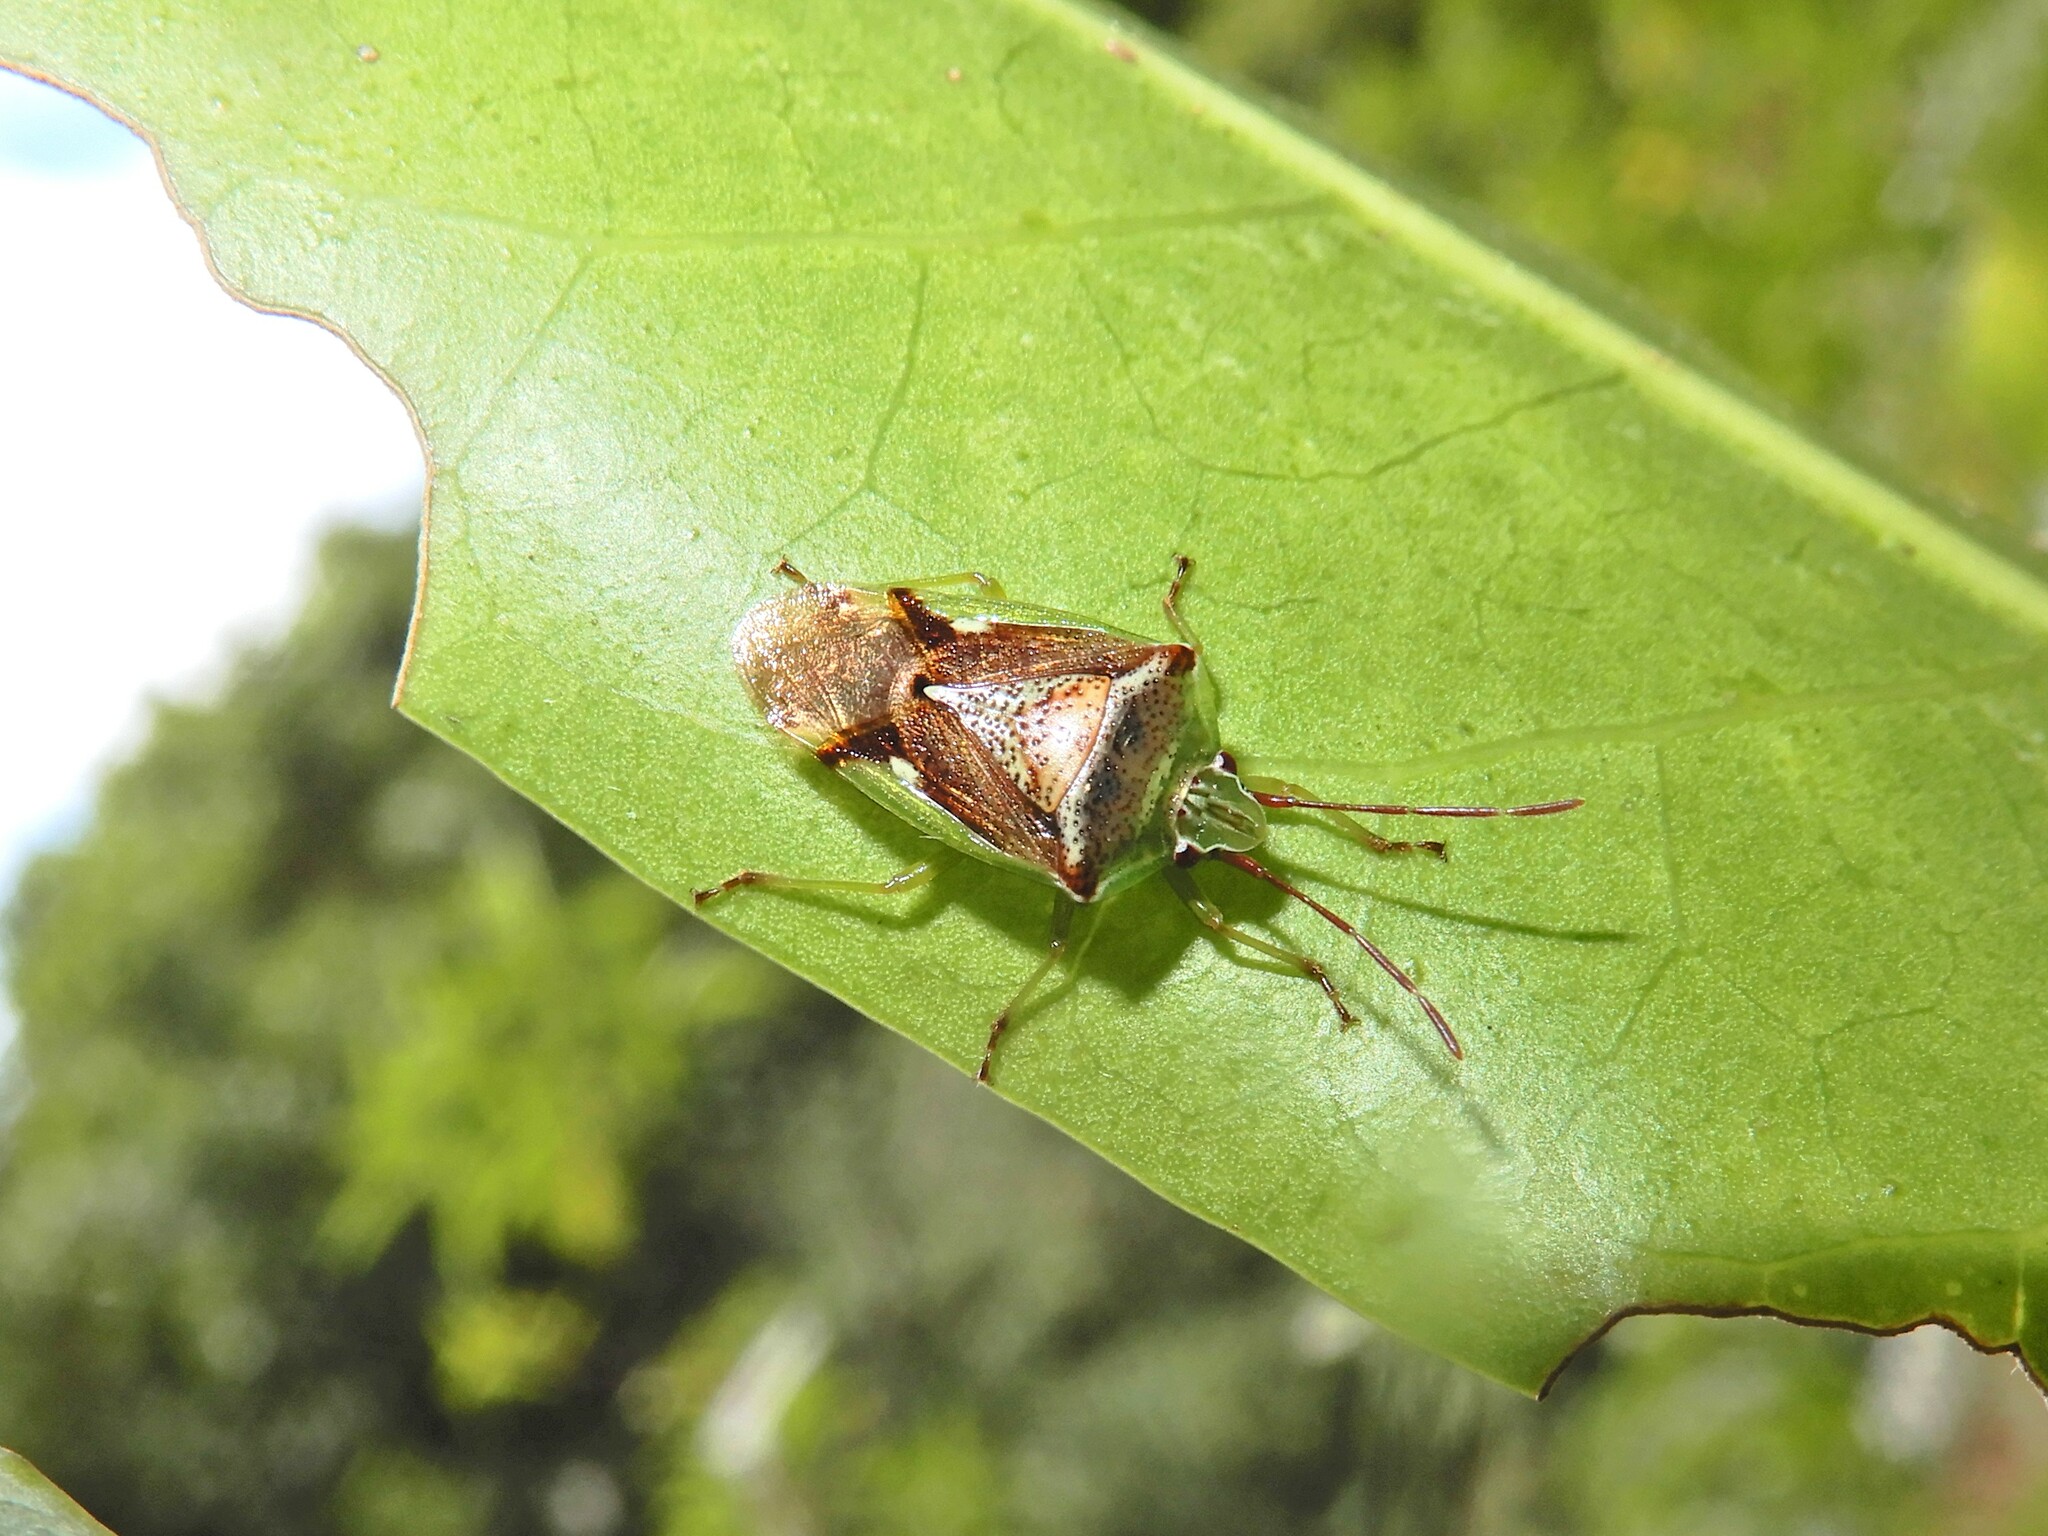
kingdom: Animalia
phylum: Arthropoda
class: Insecta
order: Hemiptera
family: Acanthosomatidae
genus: Oncacontias
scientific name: Oncacontias vittatus
